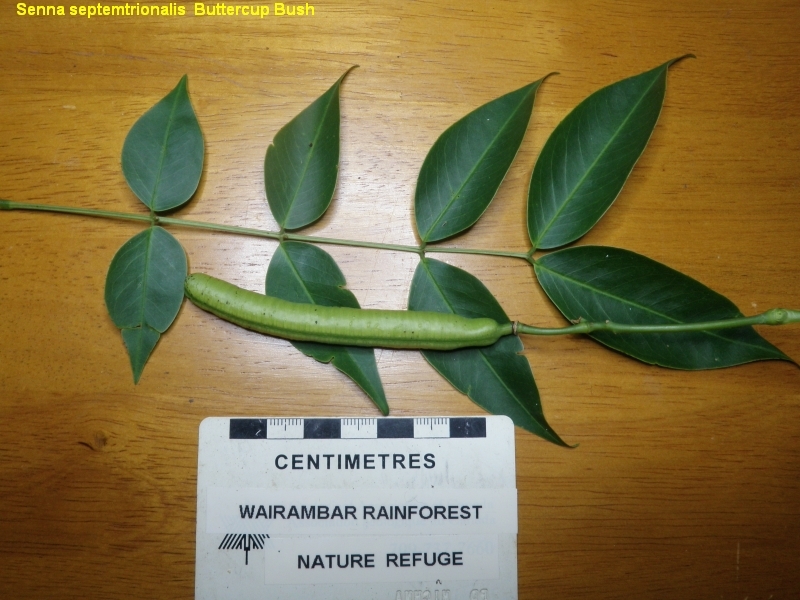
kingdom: Plantae
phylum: Tracheophyta
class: Magnoliopsida
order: Fabales
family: Fabaceae
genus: Senna
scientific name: Senna septemtrionalis
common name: Arsenic bush
